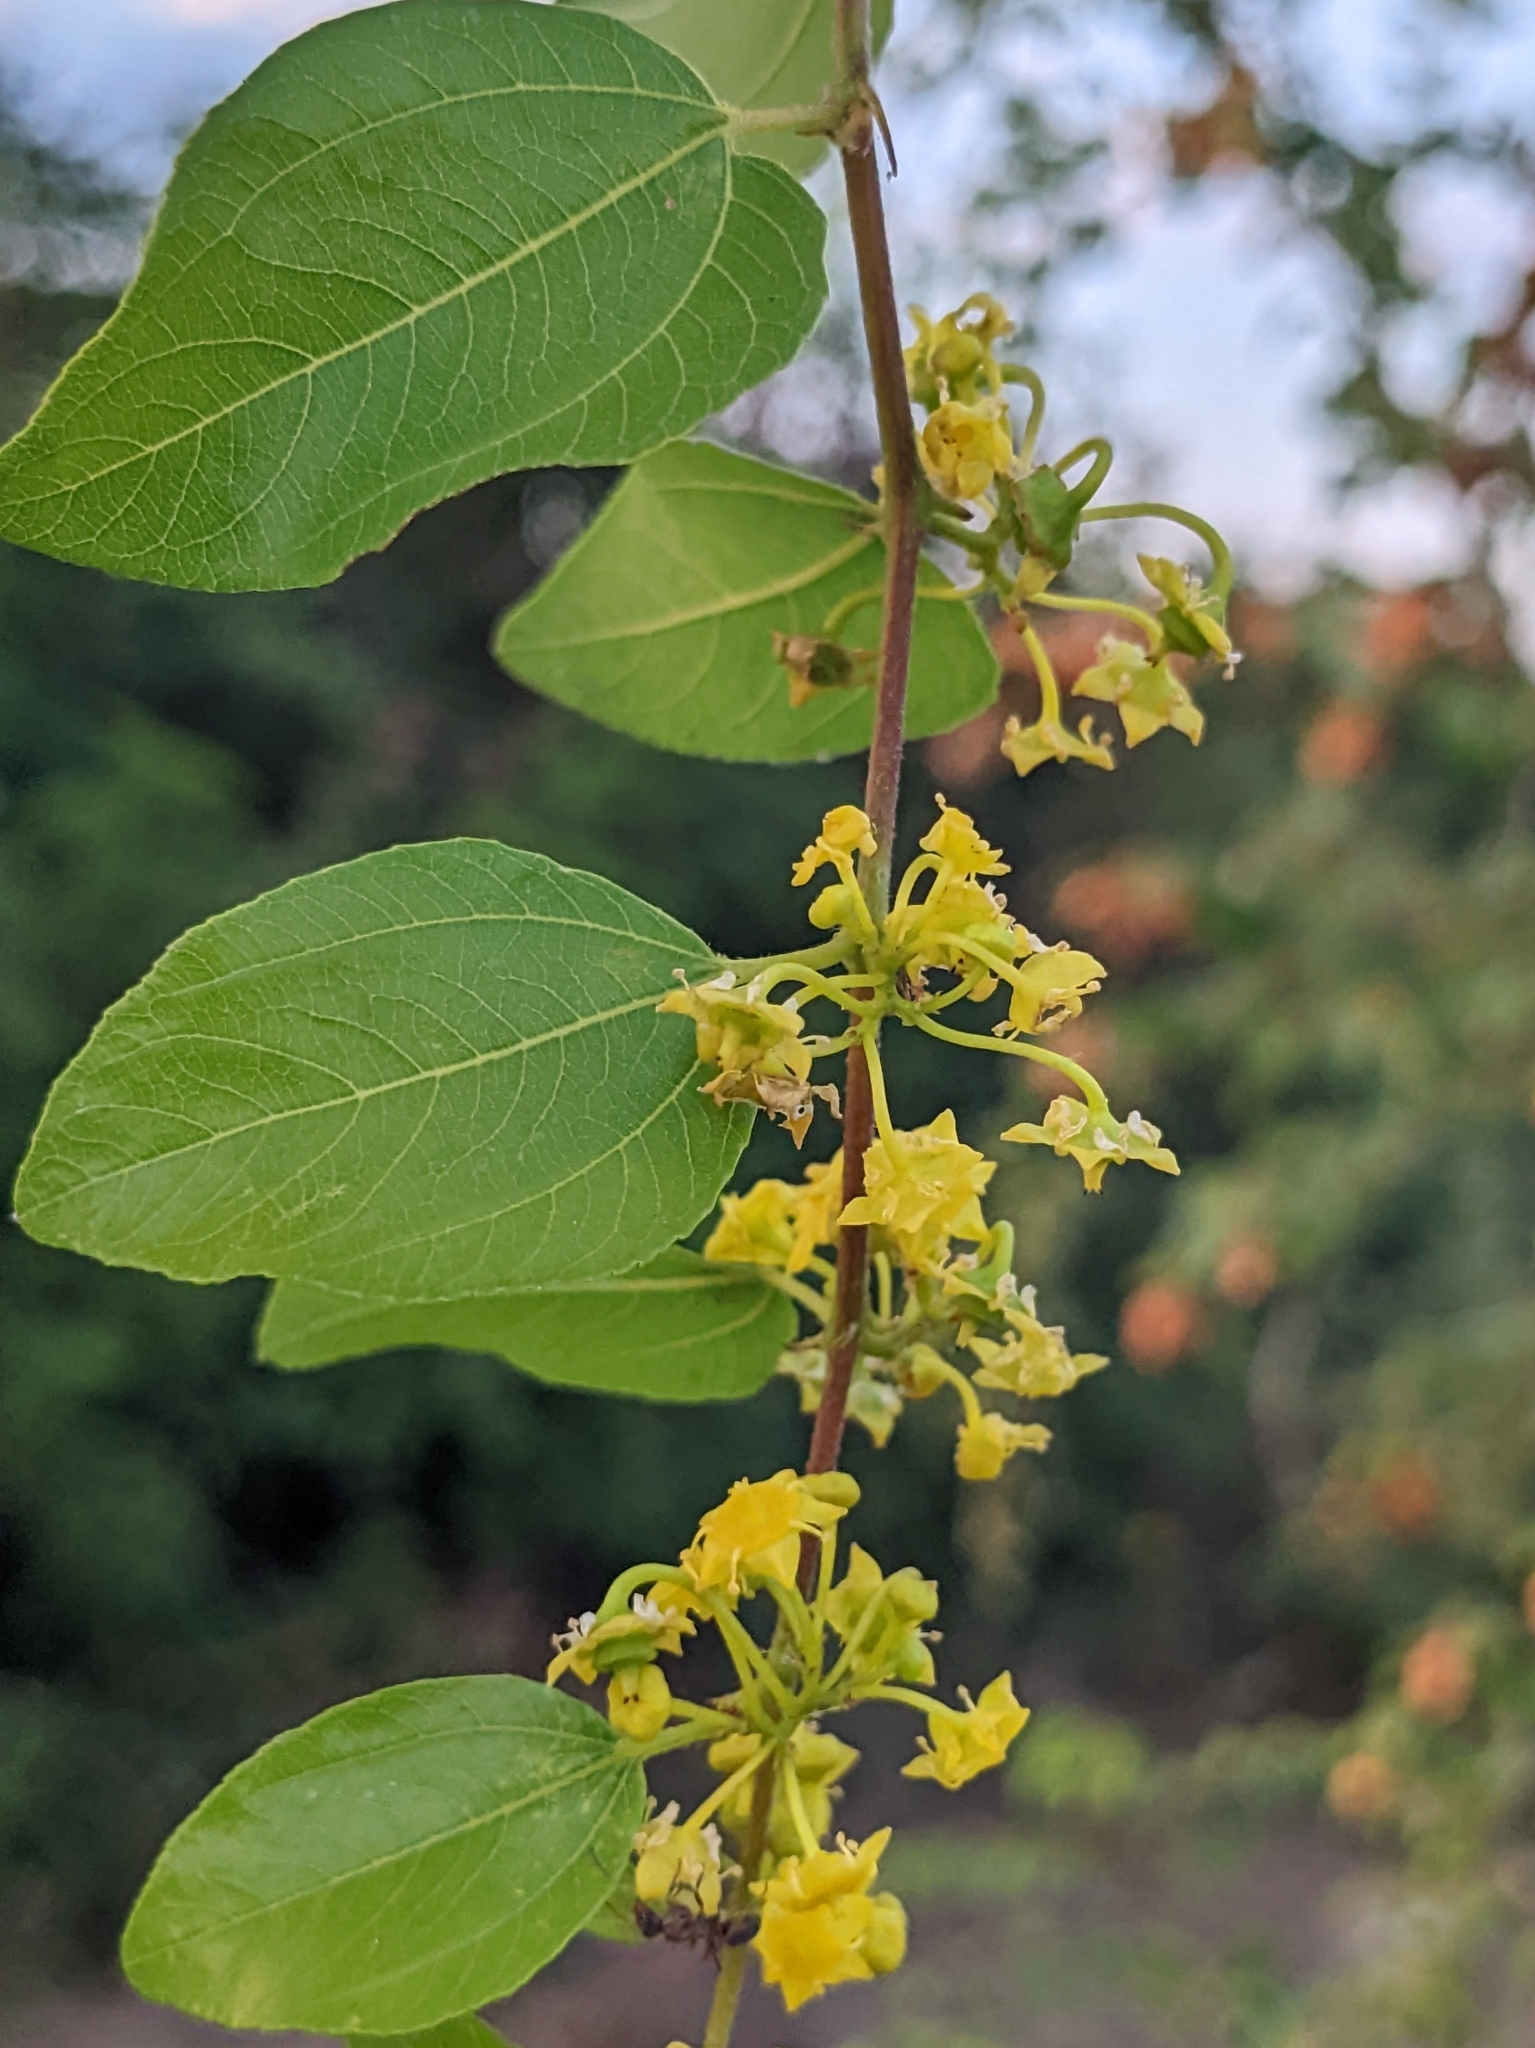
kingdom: Plantae
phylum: Tracheophyta
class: Magnoliopsida
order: Rosales
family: Rhamnaceae
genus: Paliurus
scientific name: Paliurus spina-christi
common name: Jeruselem thorn
